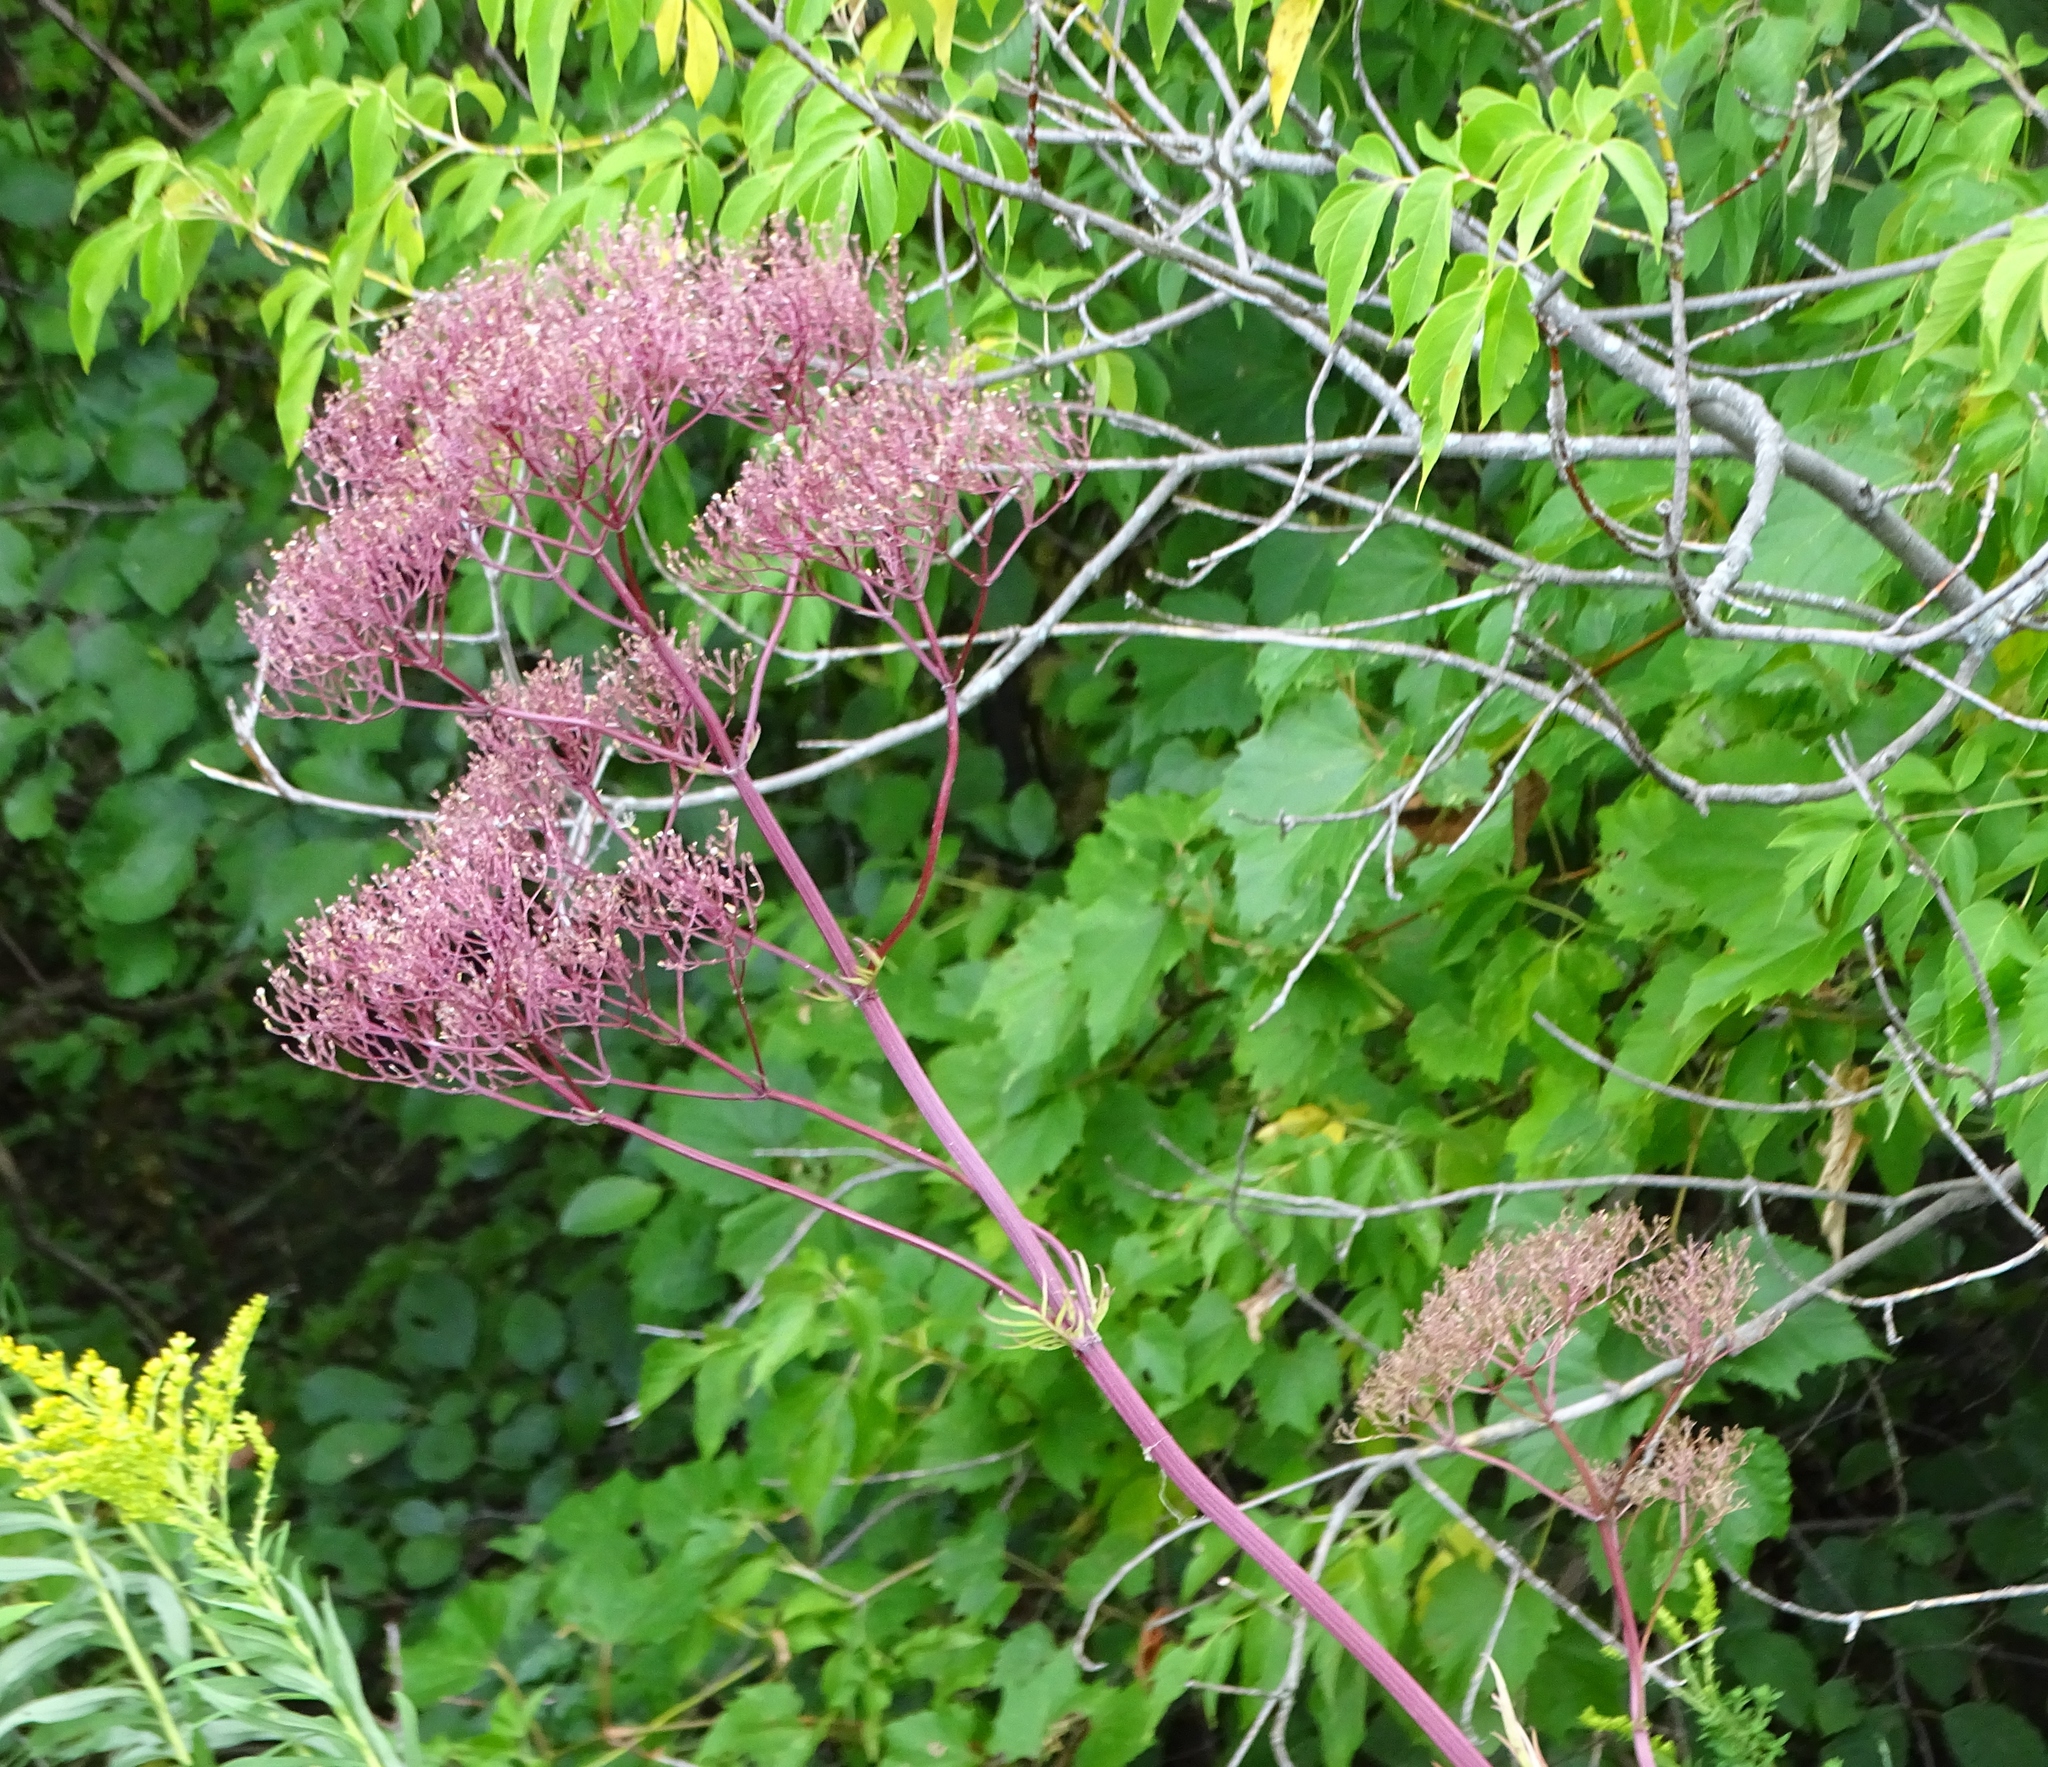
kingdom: Plantae
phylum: Tracheophyta
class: Magnoliopsida
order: Dipsacales
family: Caprifoliaceae
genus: Valeriana
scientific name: Valeriana officinalis
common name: Common valerian
